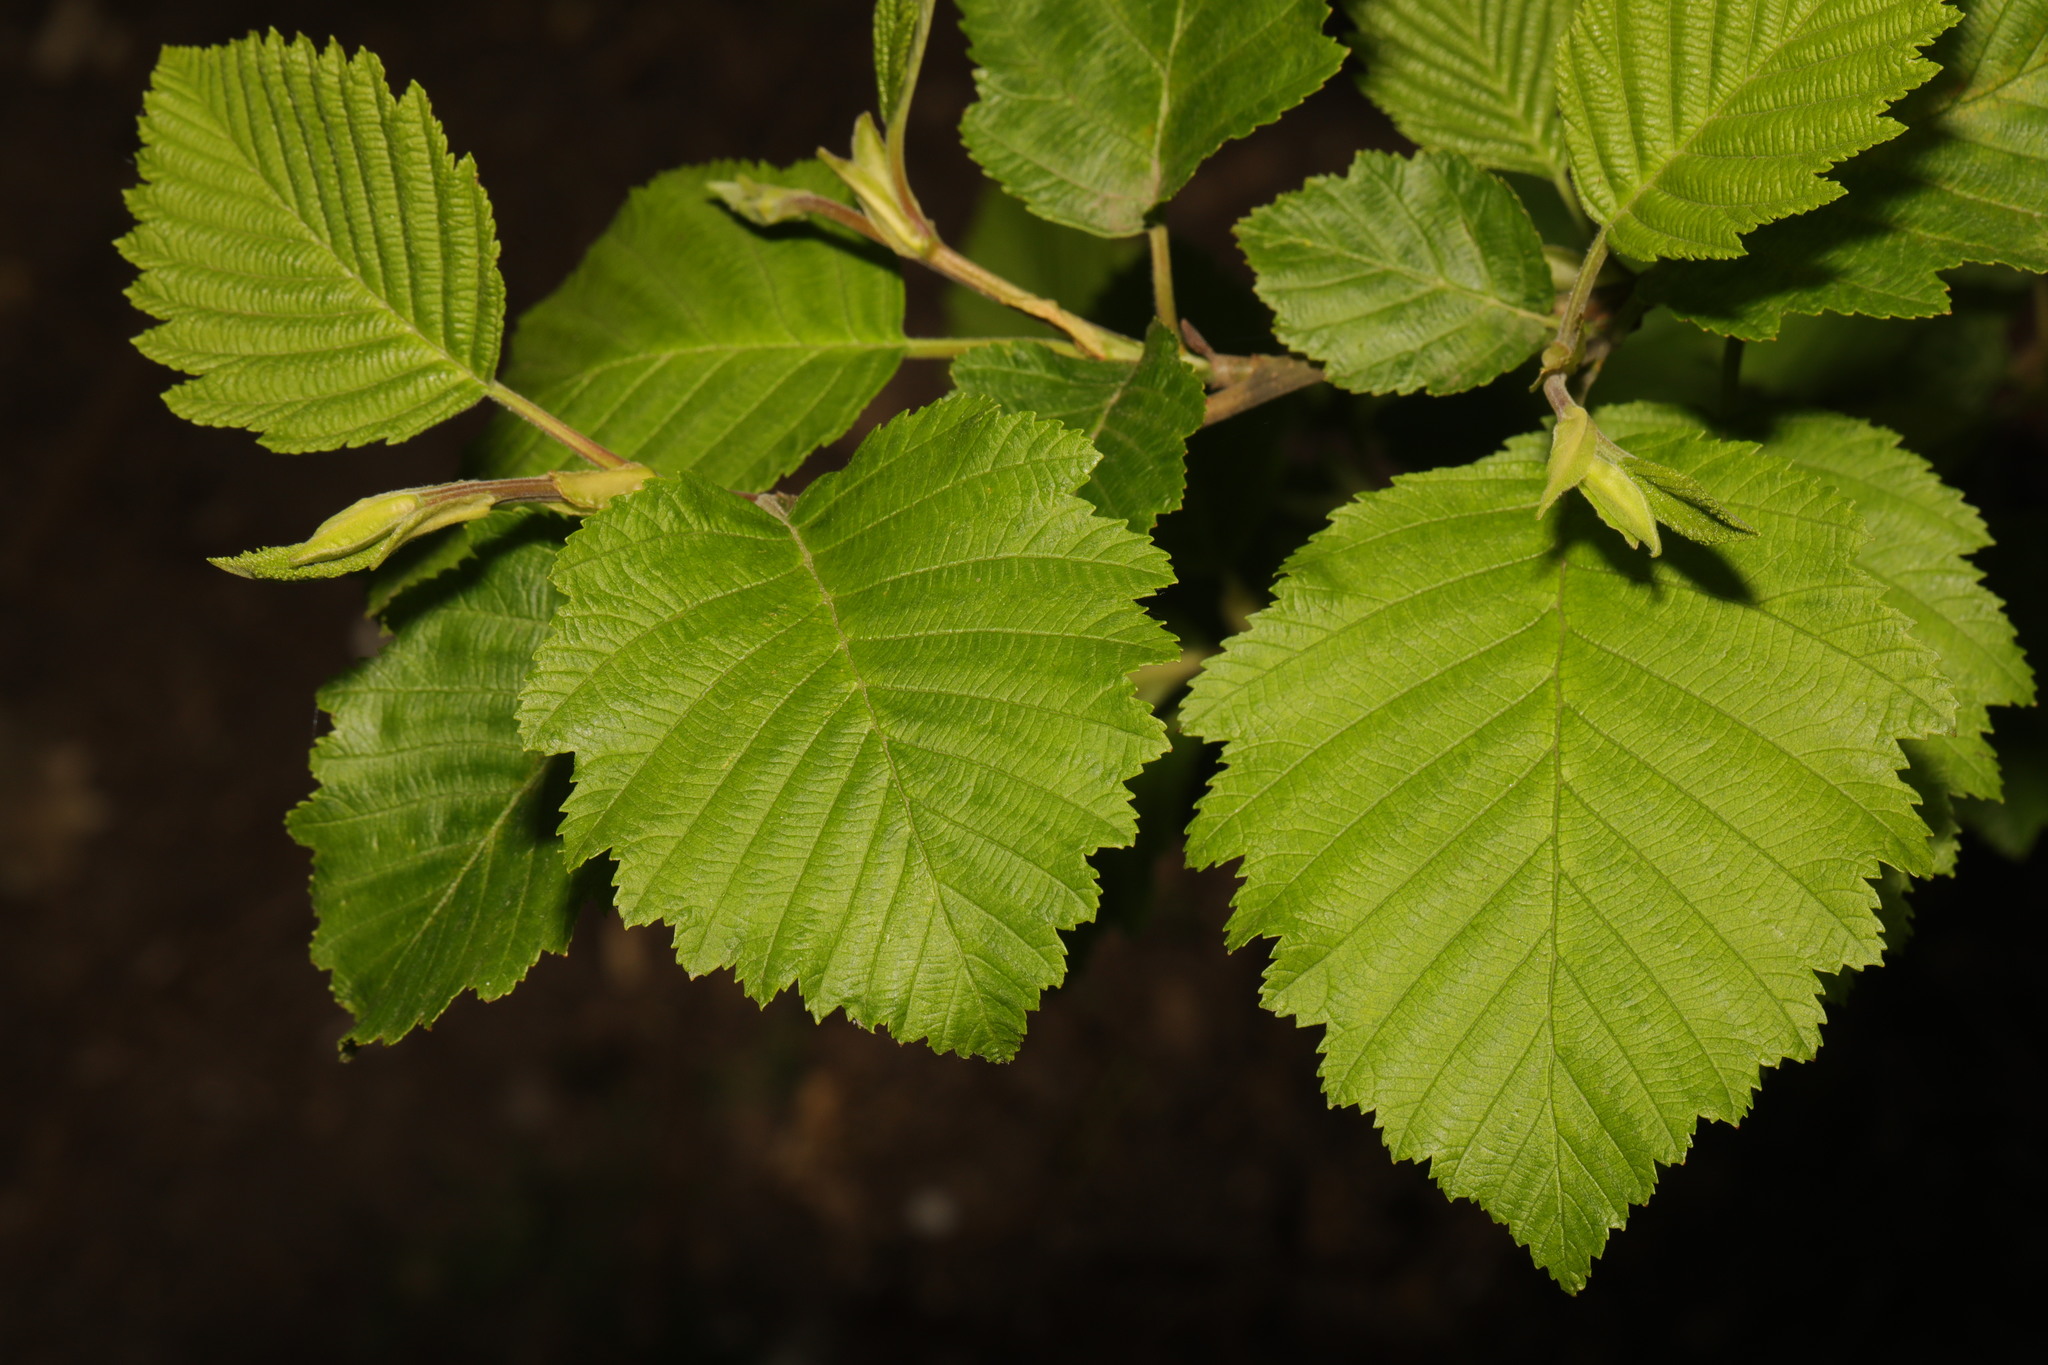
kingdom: Plantae
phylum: Tracheophyta
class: Magnoliopsida
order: Fagales
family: Betulaceae
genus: Alnus
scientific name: Alnus incana
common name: Grey alder
